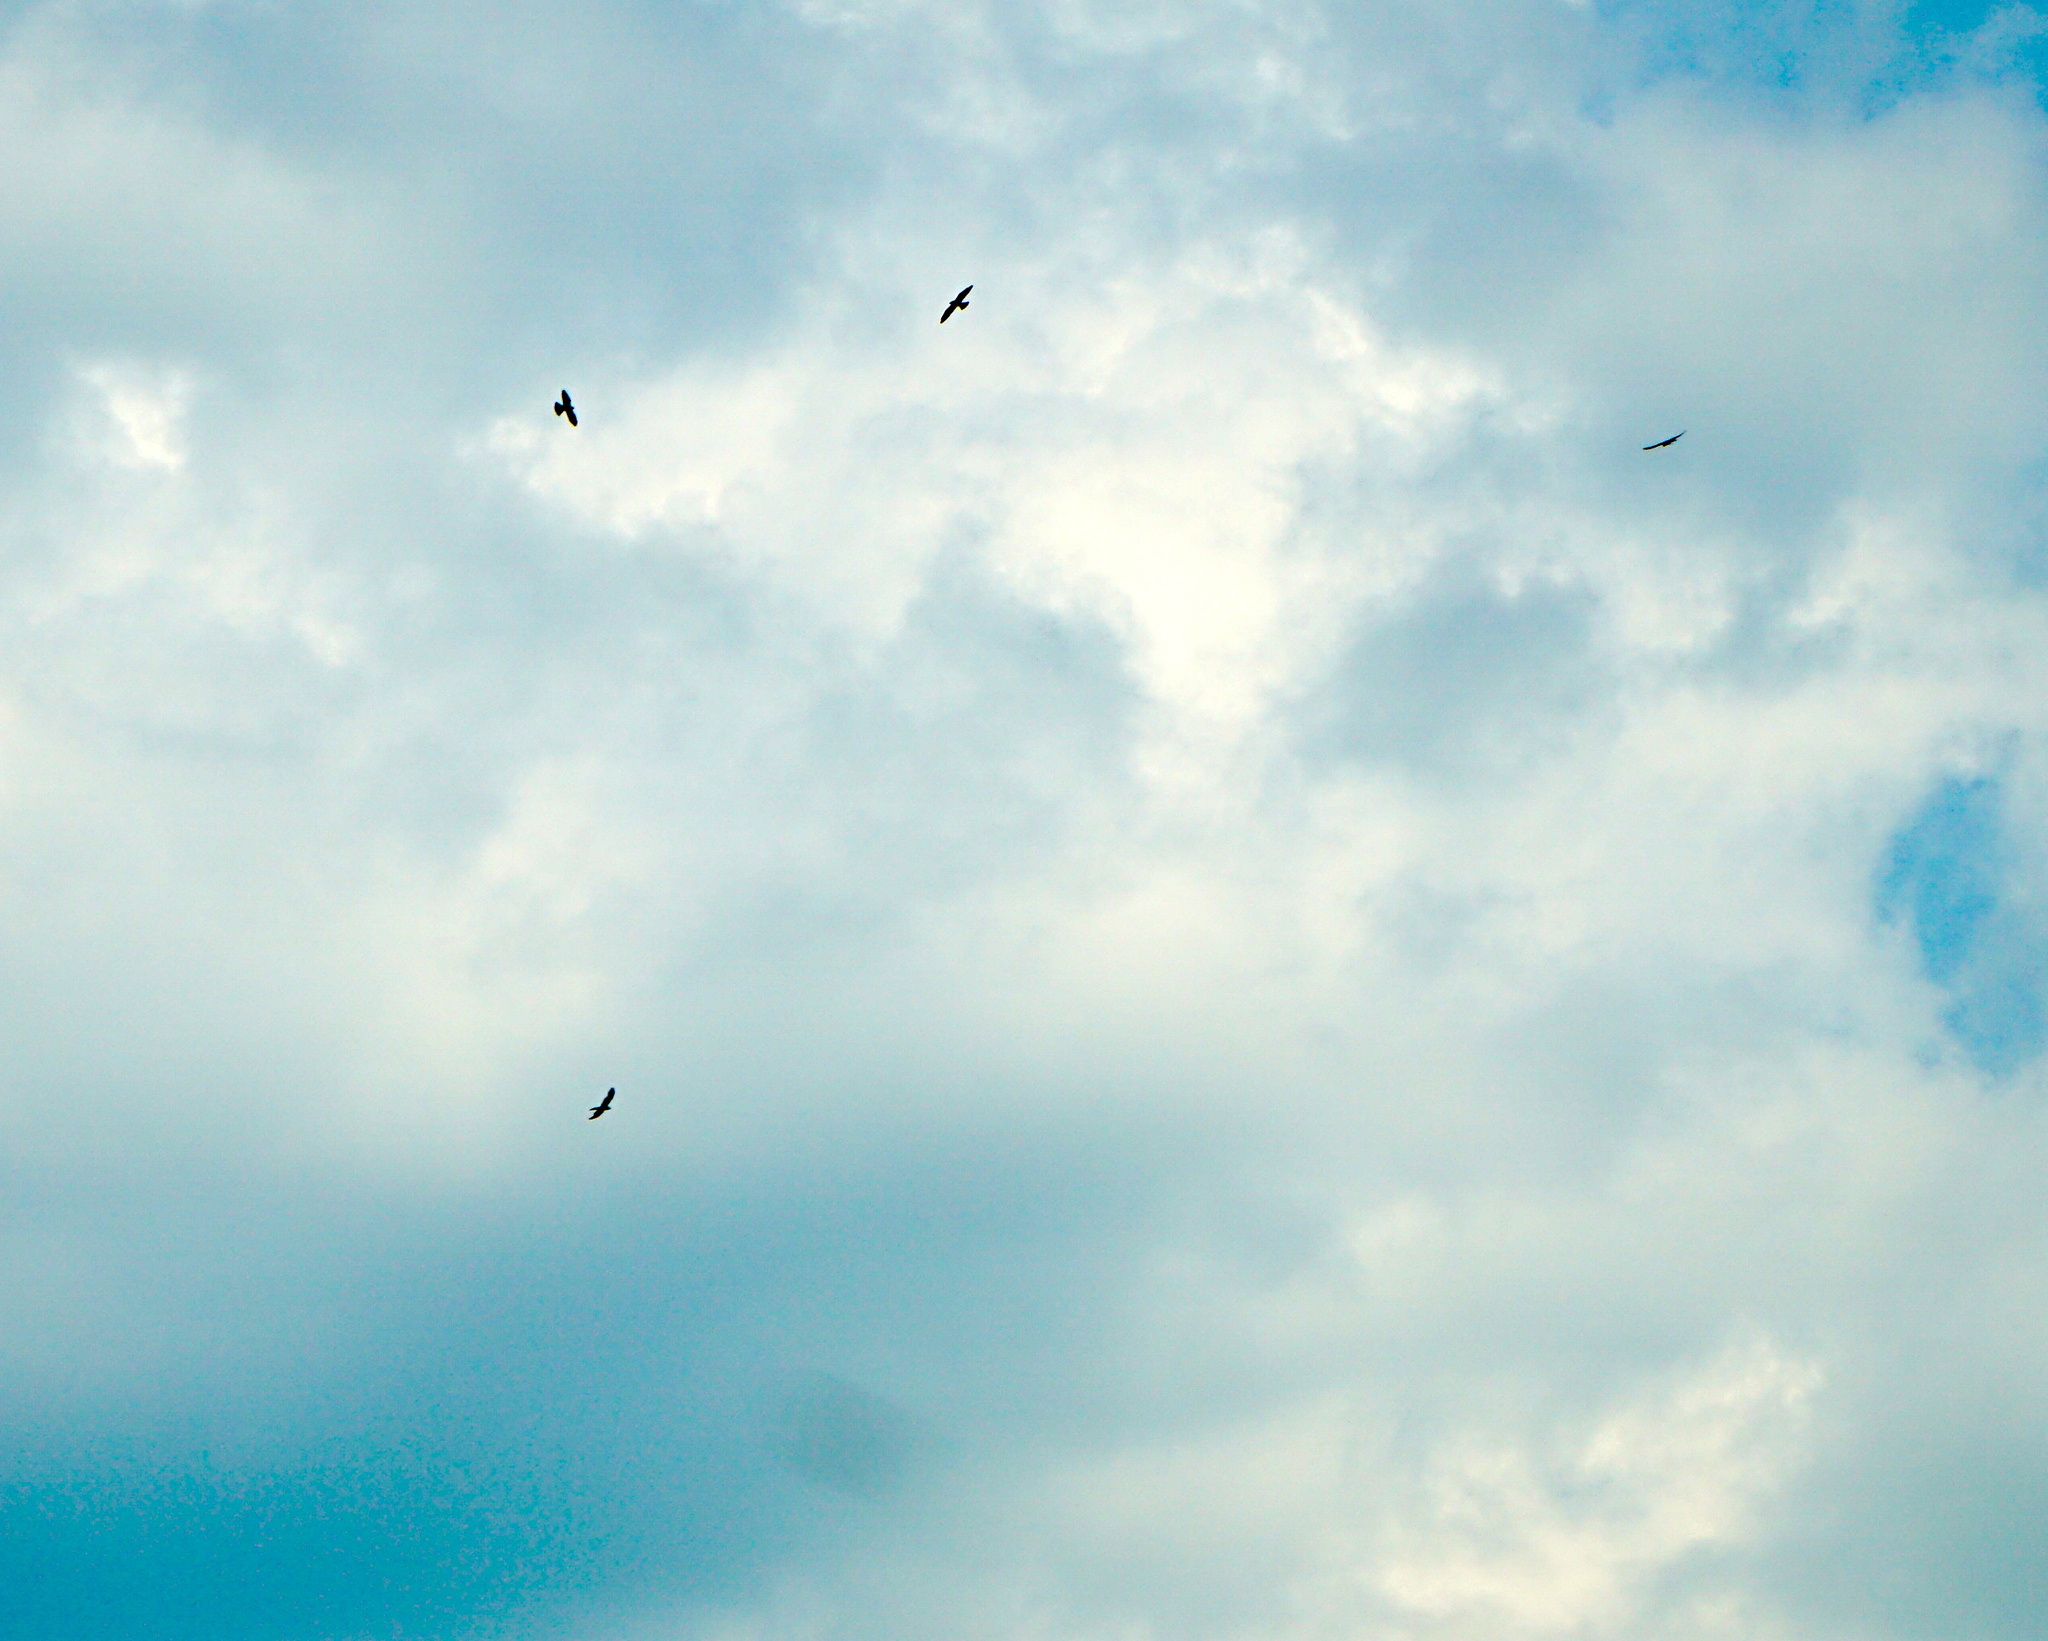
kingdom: Animalia
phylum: Chordata
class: Aves
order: Accipitriformes
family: Accipitridae
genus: Ictinia
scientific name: Ictinia mississippiensis
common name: Mississippi kite
